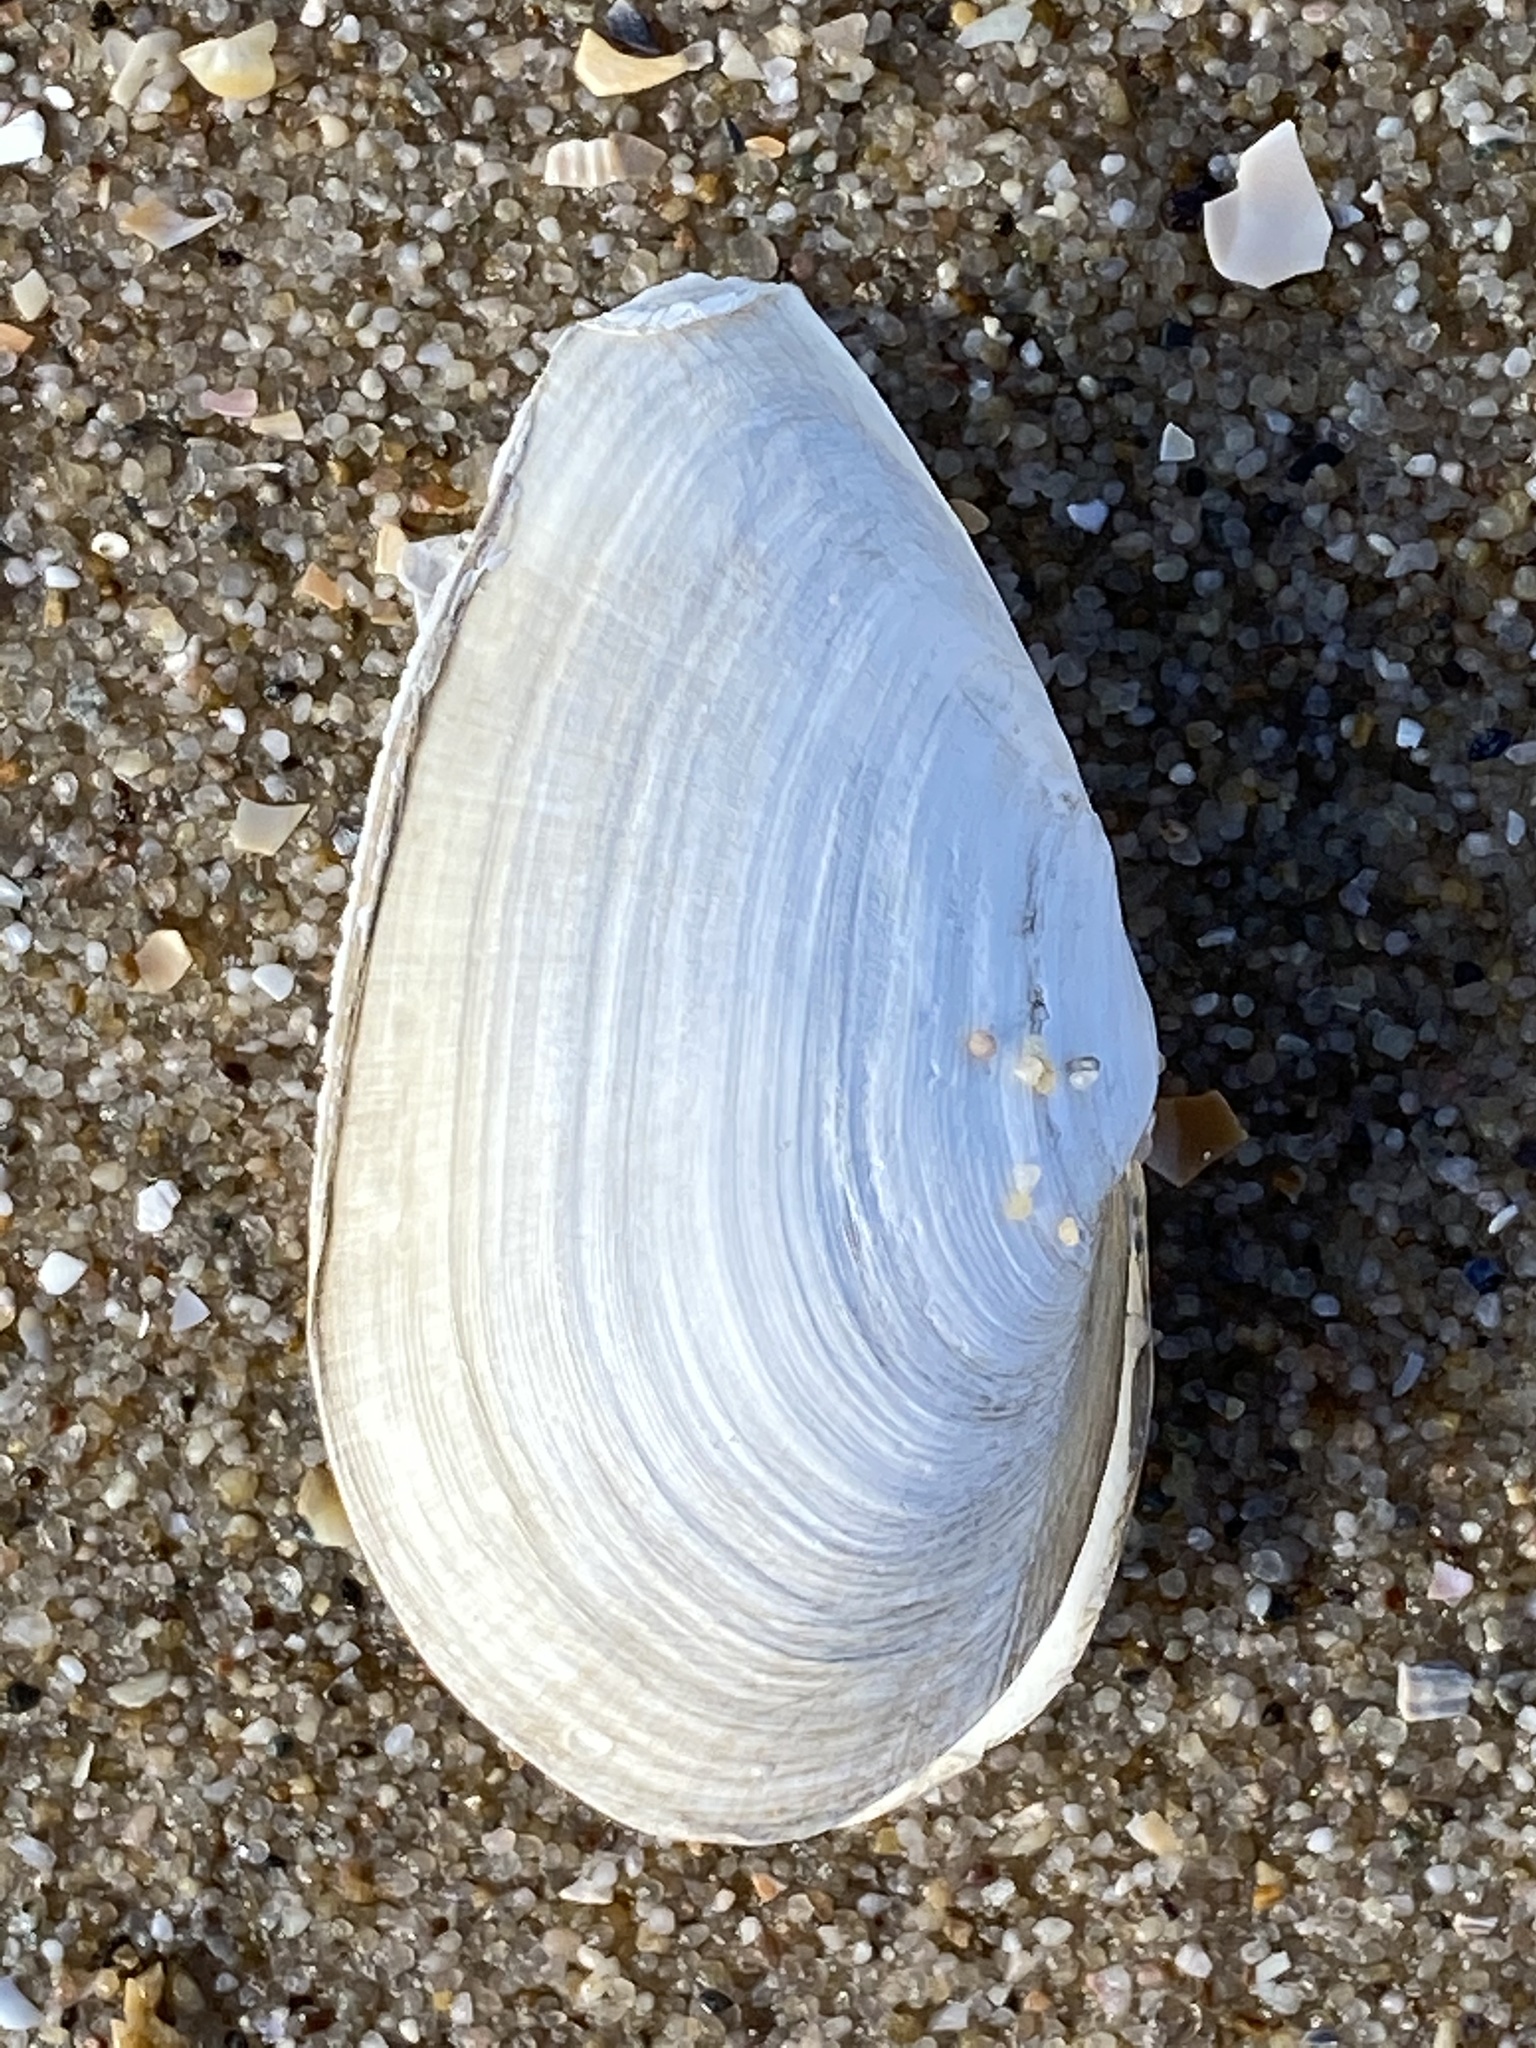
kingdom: Animalia
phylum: Mollusca
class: Bivalvia
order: Myida
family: Myidae
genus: Mya
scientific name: Mya arenaria
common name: Soft-shelled clam
